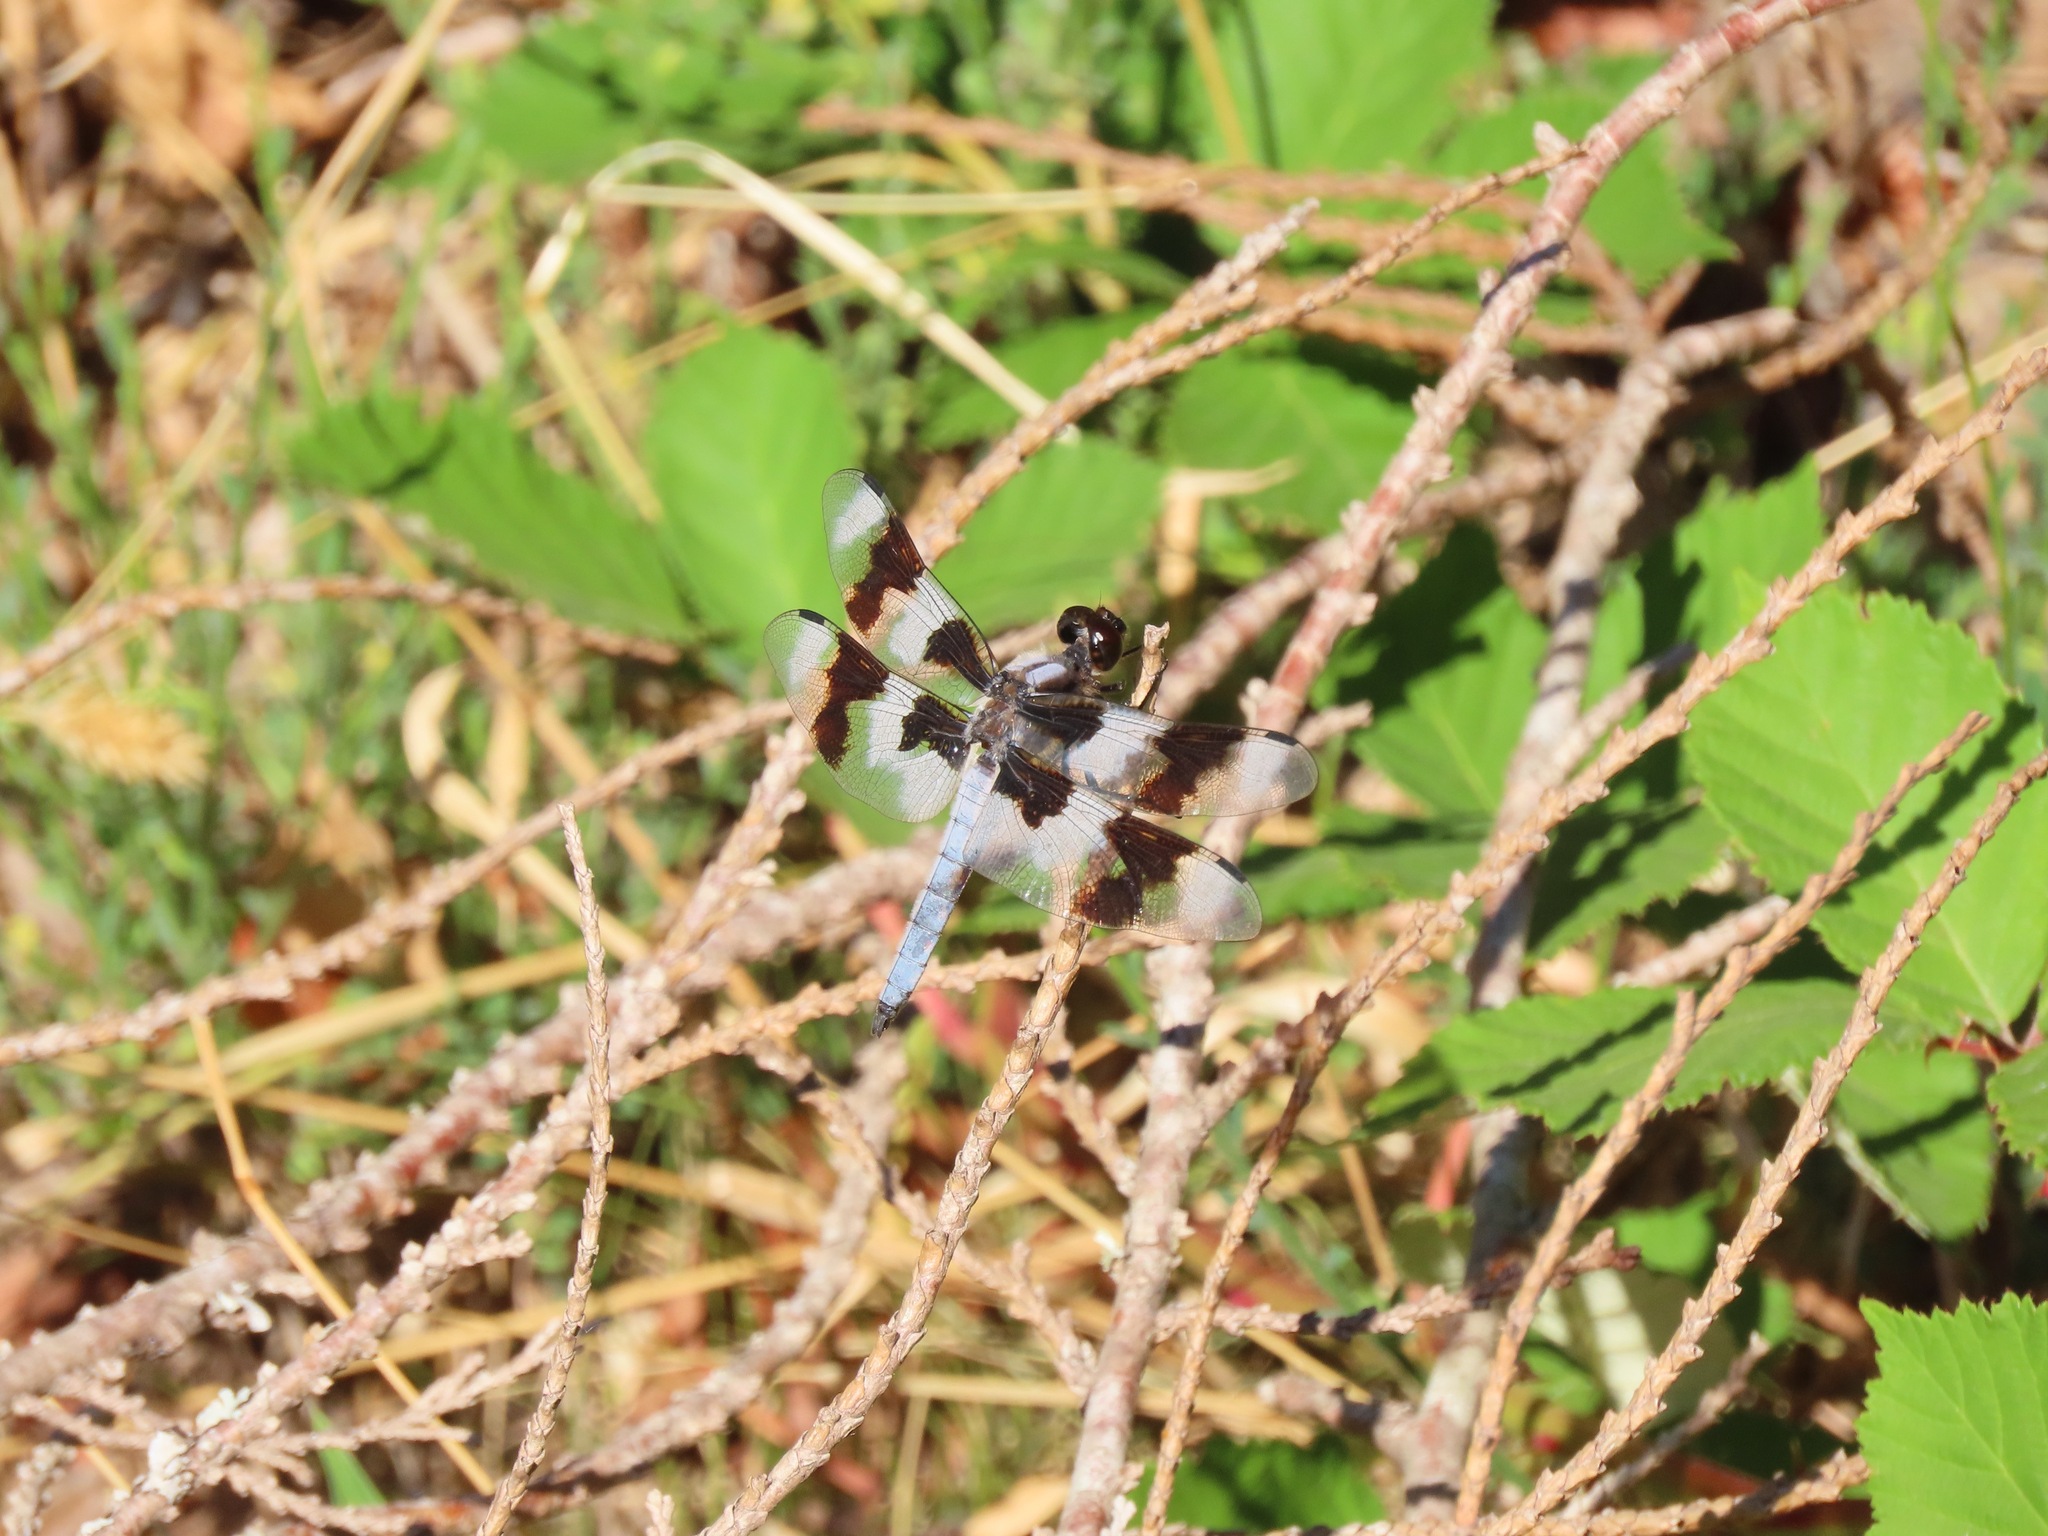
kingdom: Animalia
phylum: Arthropoda
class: Insecta
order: Odonata
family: Libellulidae
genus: Libellula
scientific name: Libellula forensis
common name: Eight-spotted skimmer
